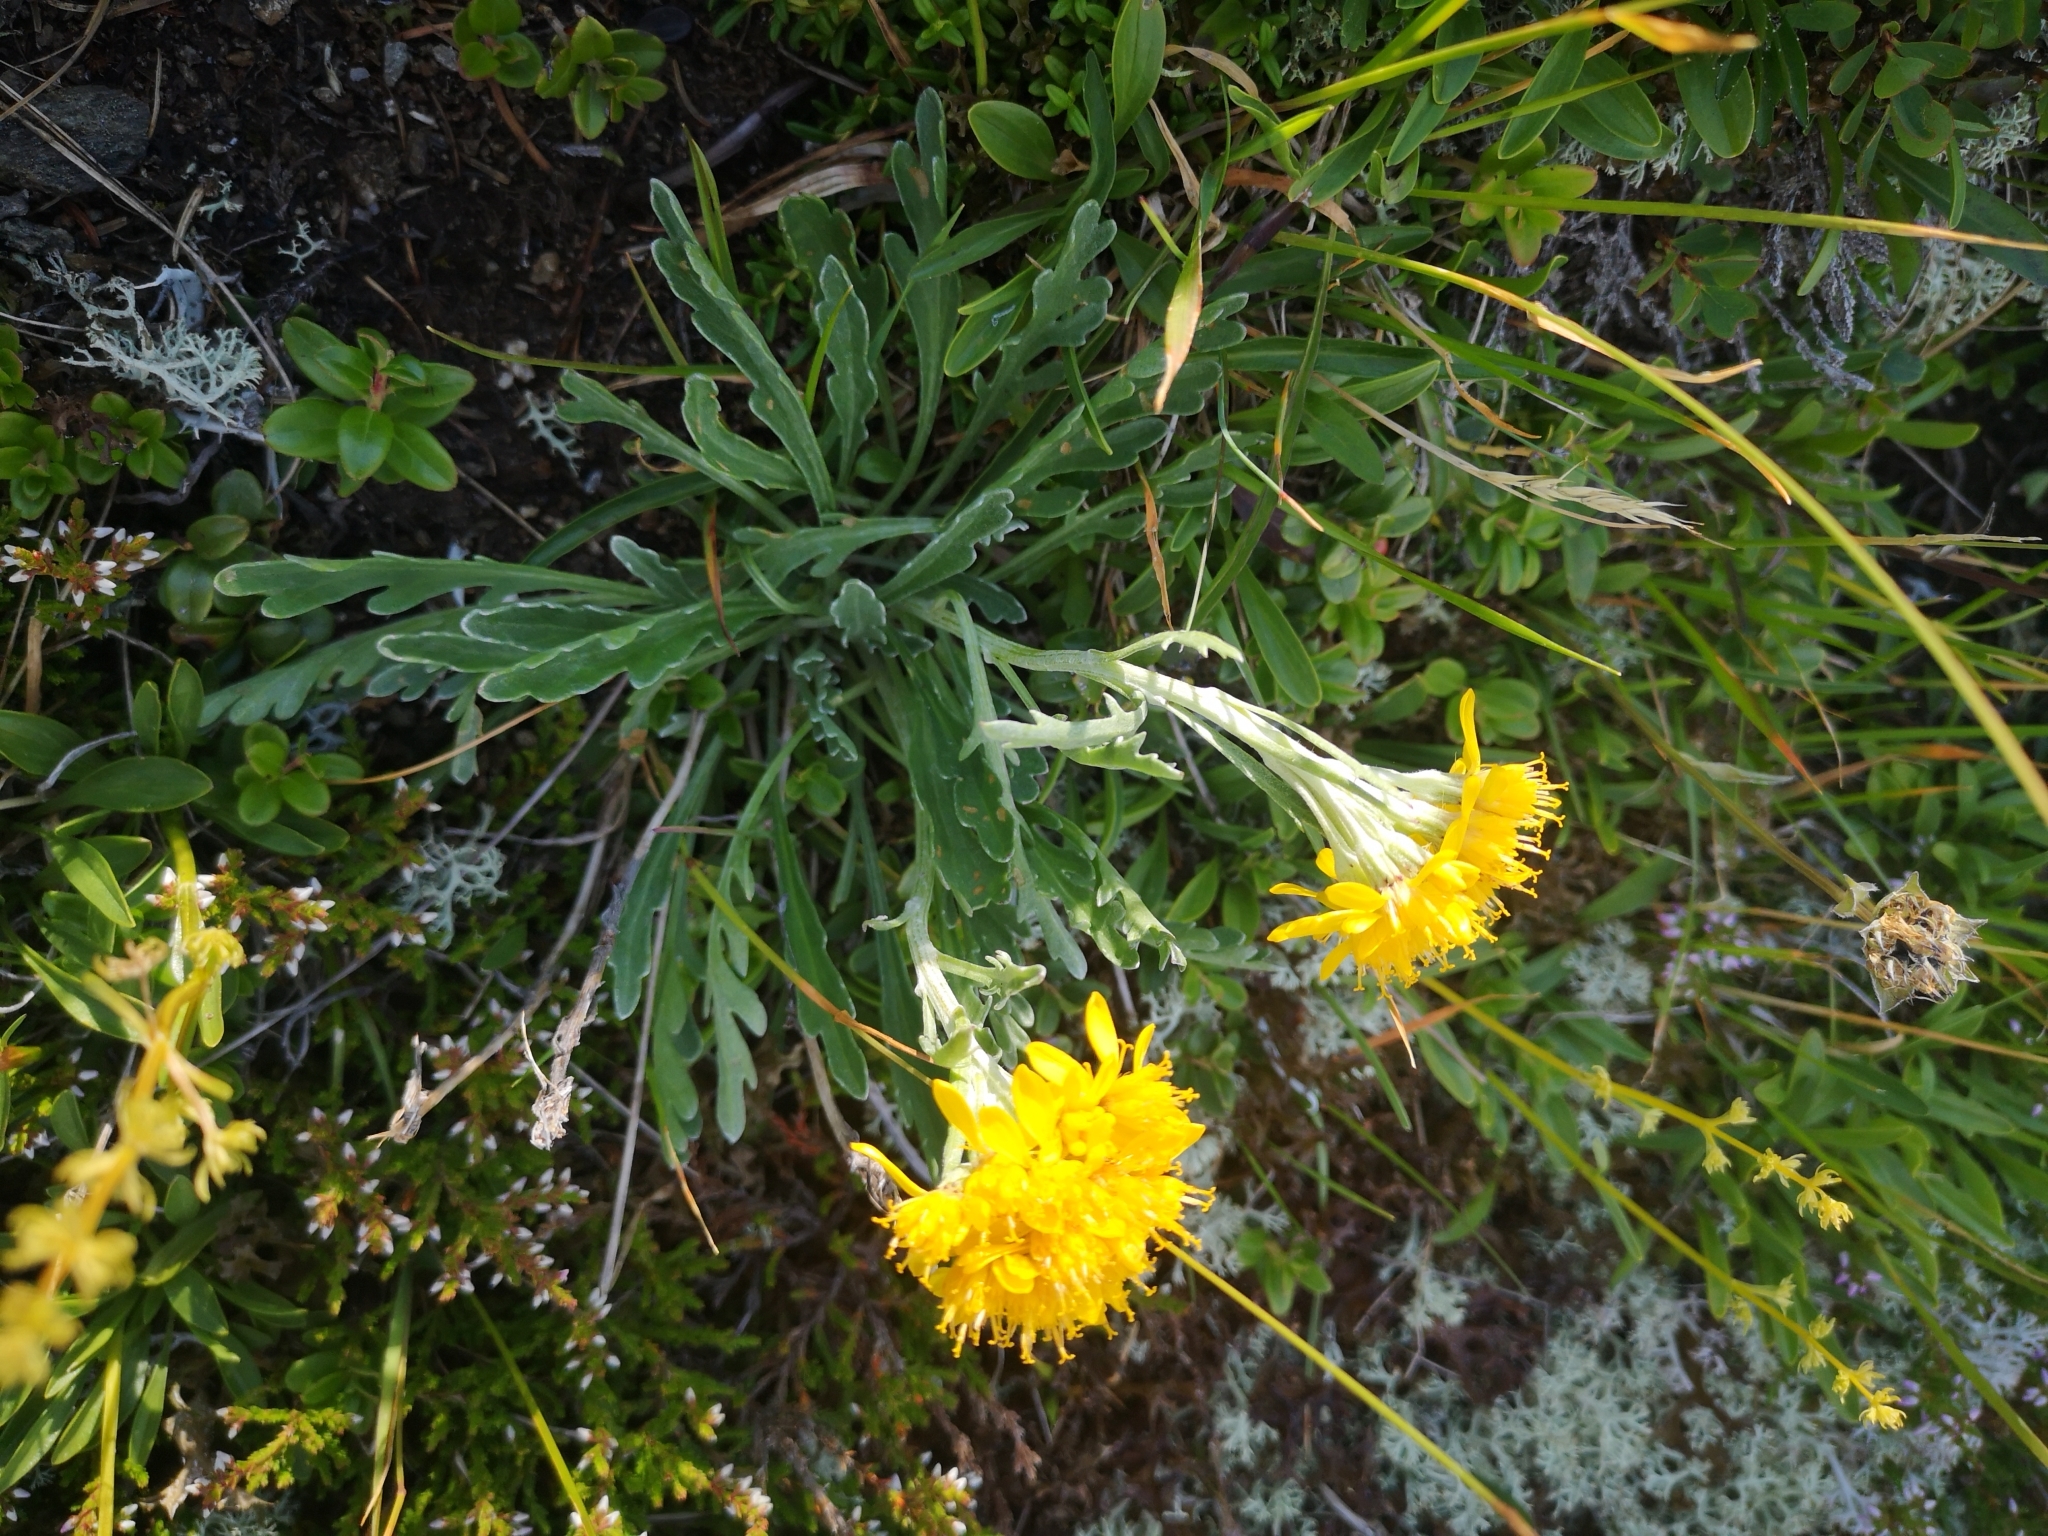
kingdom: Plantae
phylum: Tracheophyta
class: Magnoliopsida
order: Asterales
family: Asteraceae
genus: Jacobaea
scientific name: Jacobaea carniolica
